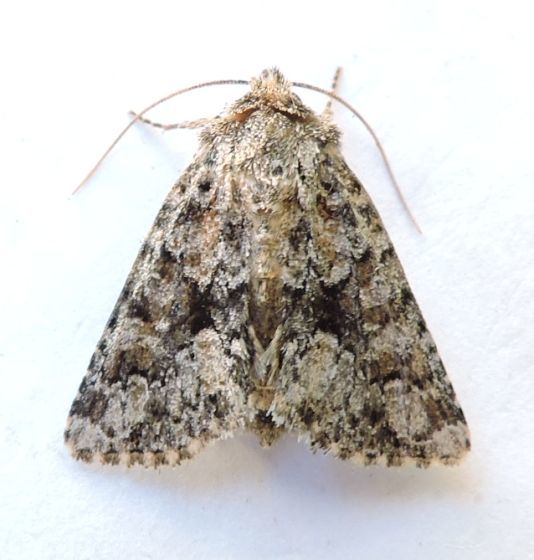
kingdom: Animalia
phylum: Arthropoda
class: Insecta
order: Lepidoptera
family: Noctuidae
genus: Pseudanarta
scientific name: Pseudanarta damnata
